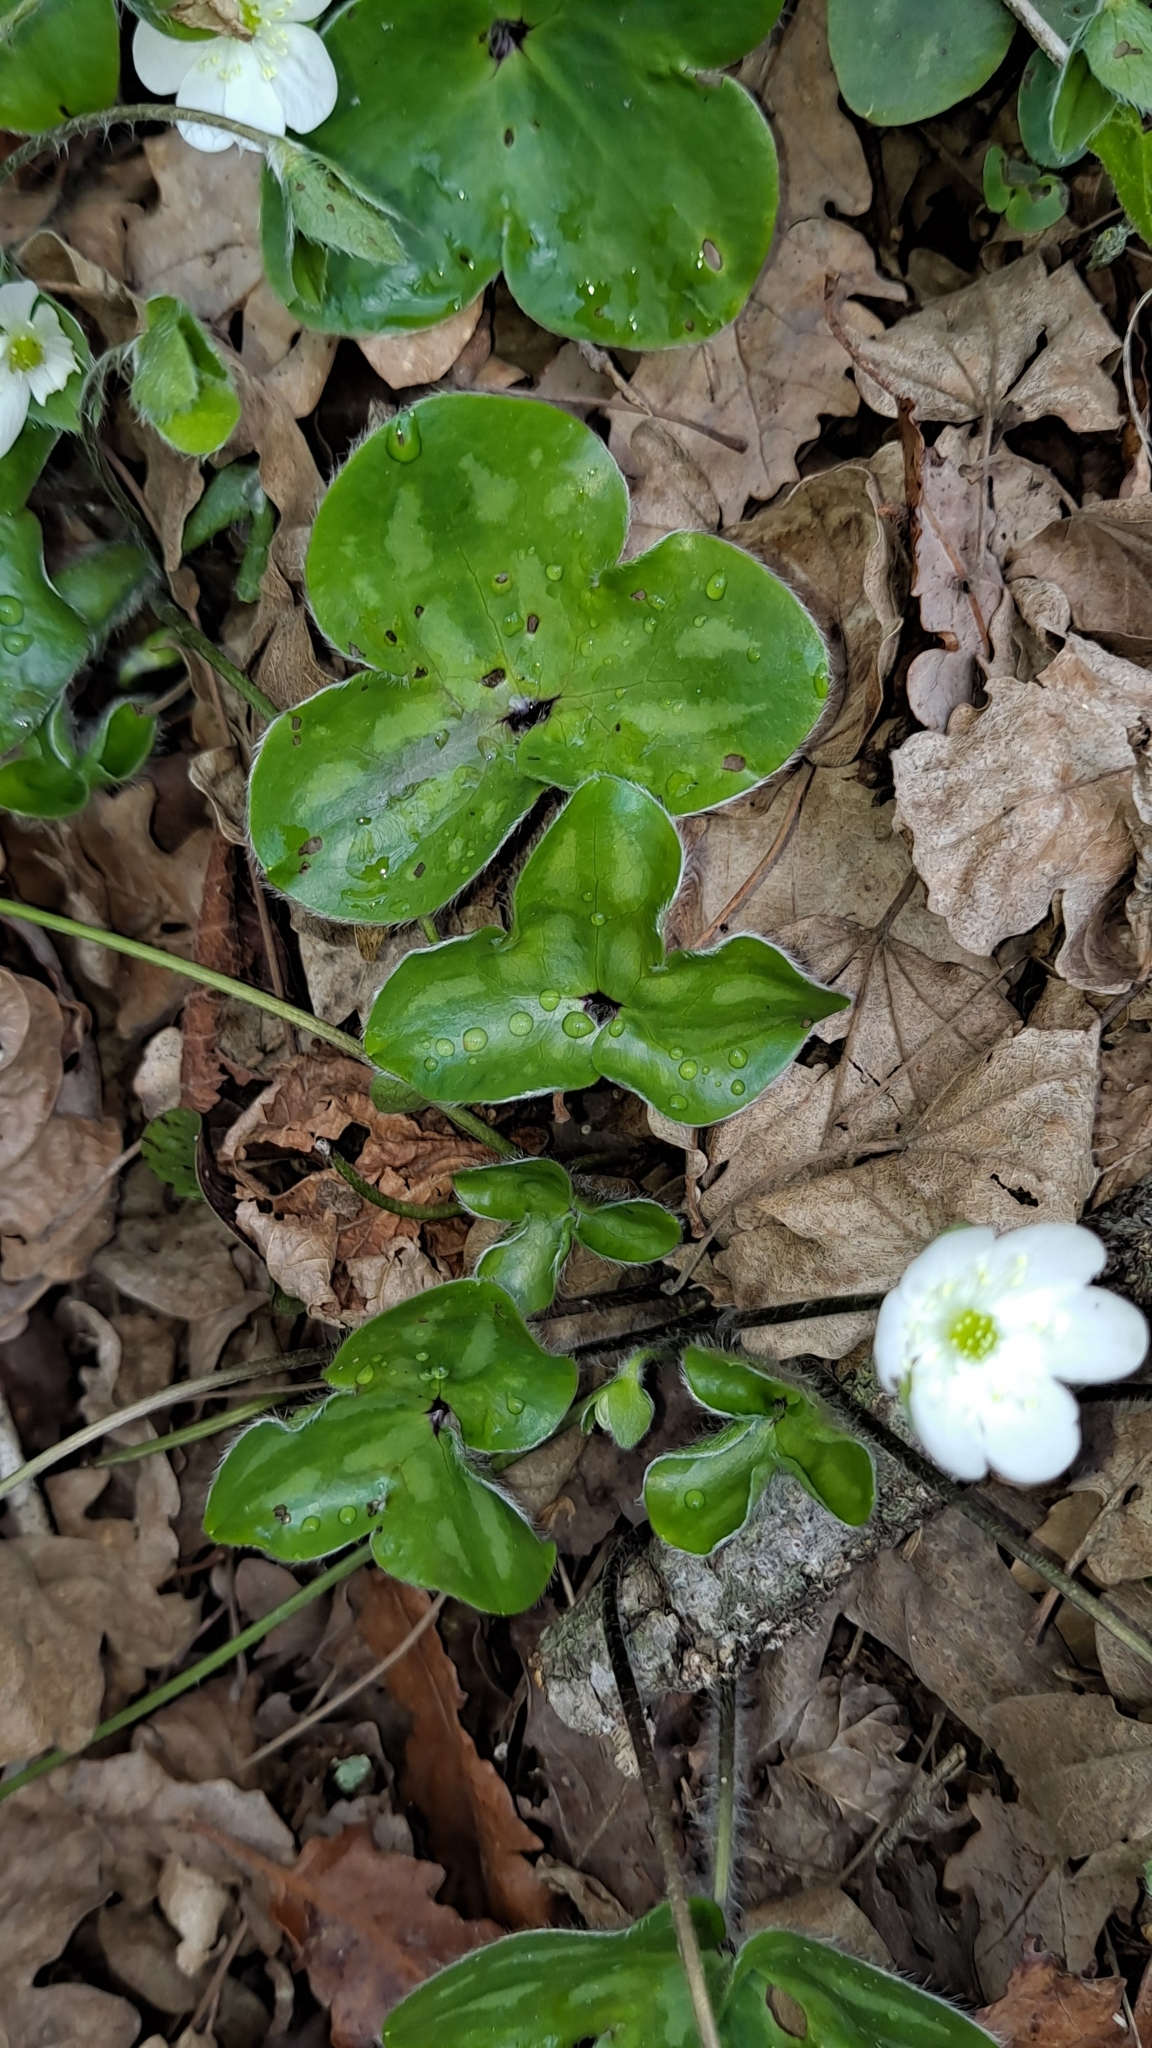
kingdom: Plantae
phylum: Tracheophyta
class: Magnoliopsida
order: Ranunculales
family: Ranunculaceae
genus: Hepatica
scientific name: Hepatica nobilis
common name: Liverleaf
